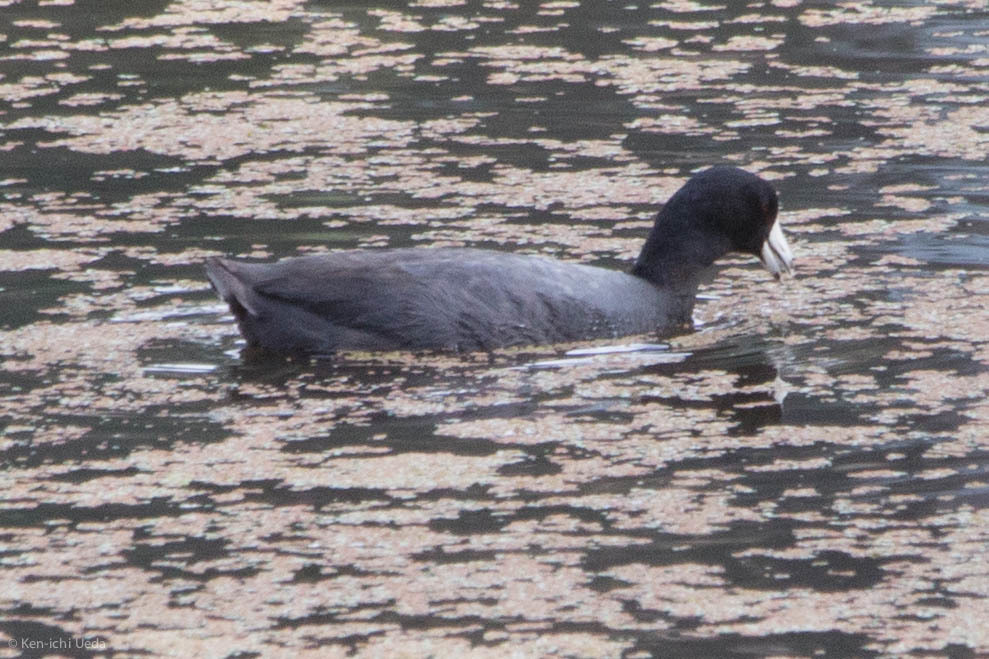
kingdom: Animalia
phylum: Chordata
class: Aves
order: Gruiformes
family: Rallidae
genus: Fulica
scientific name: Fulica americana
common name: American coot
